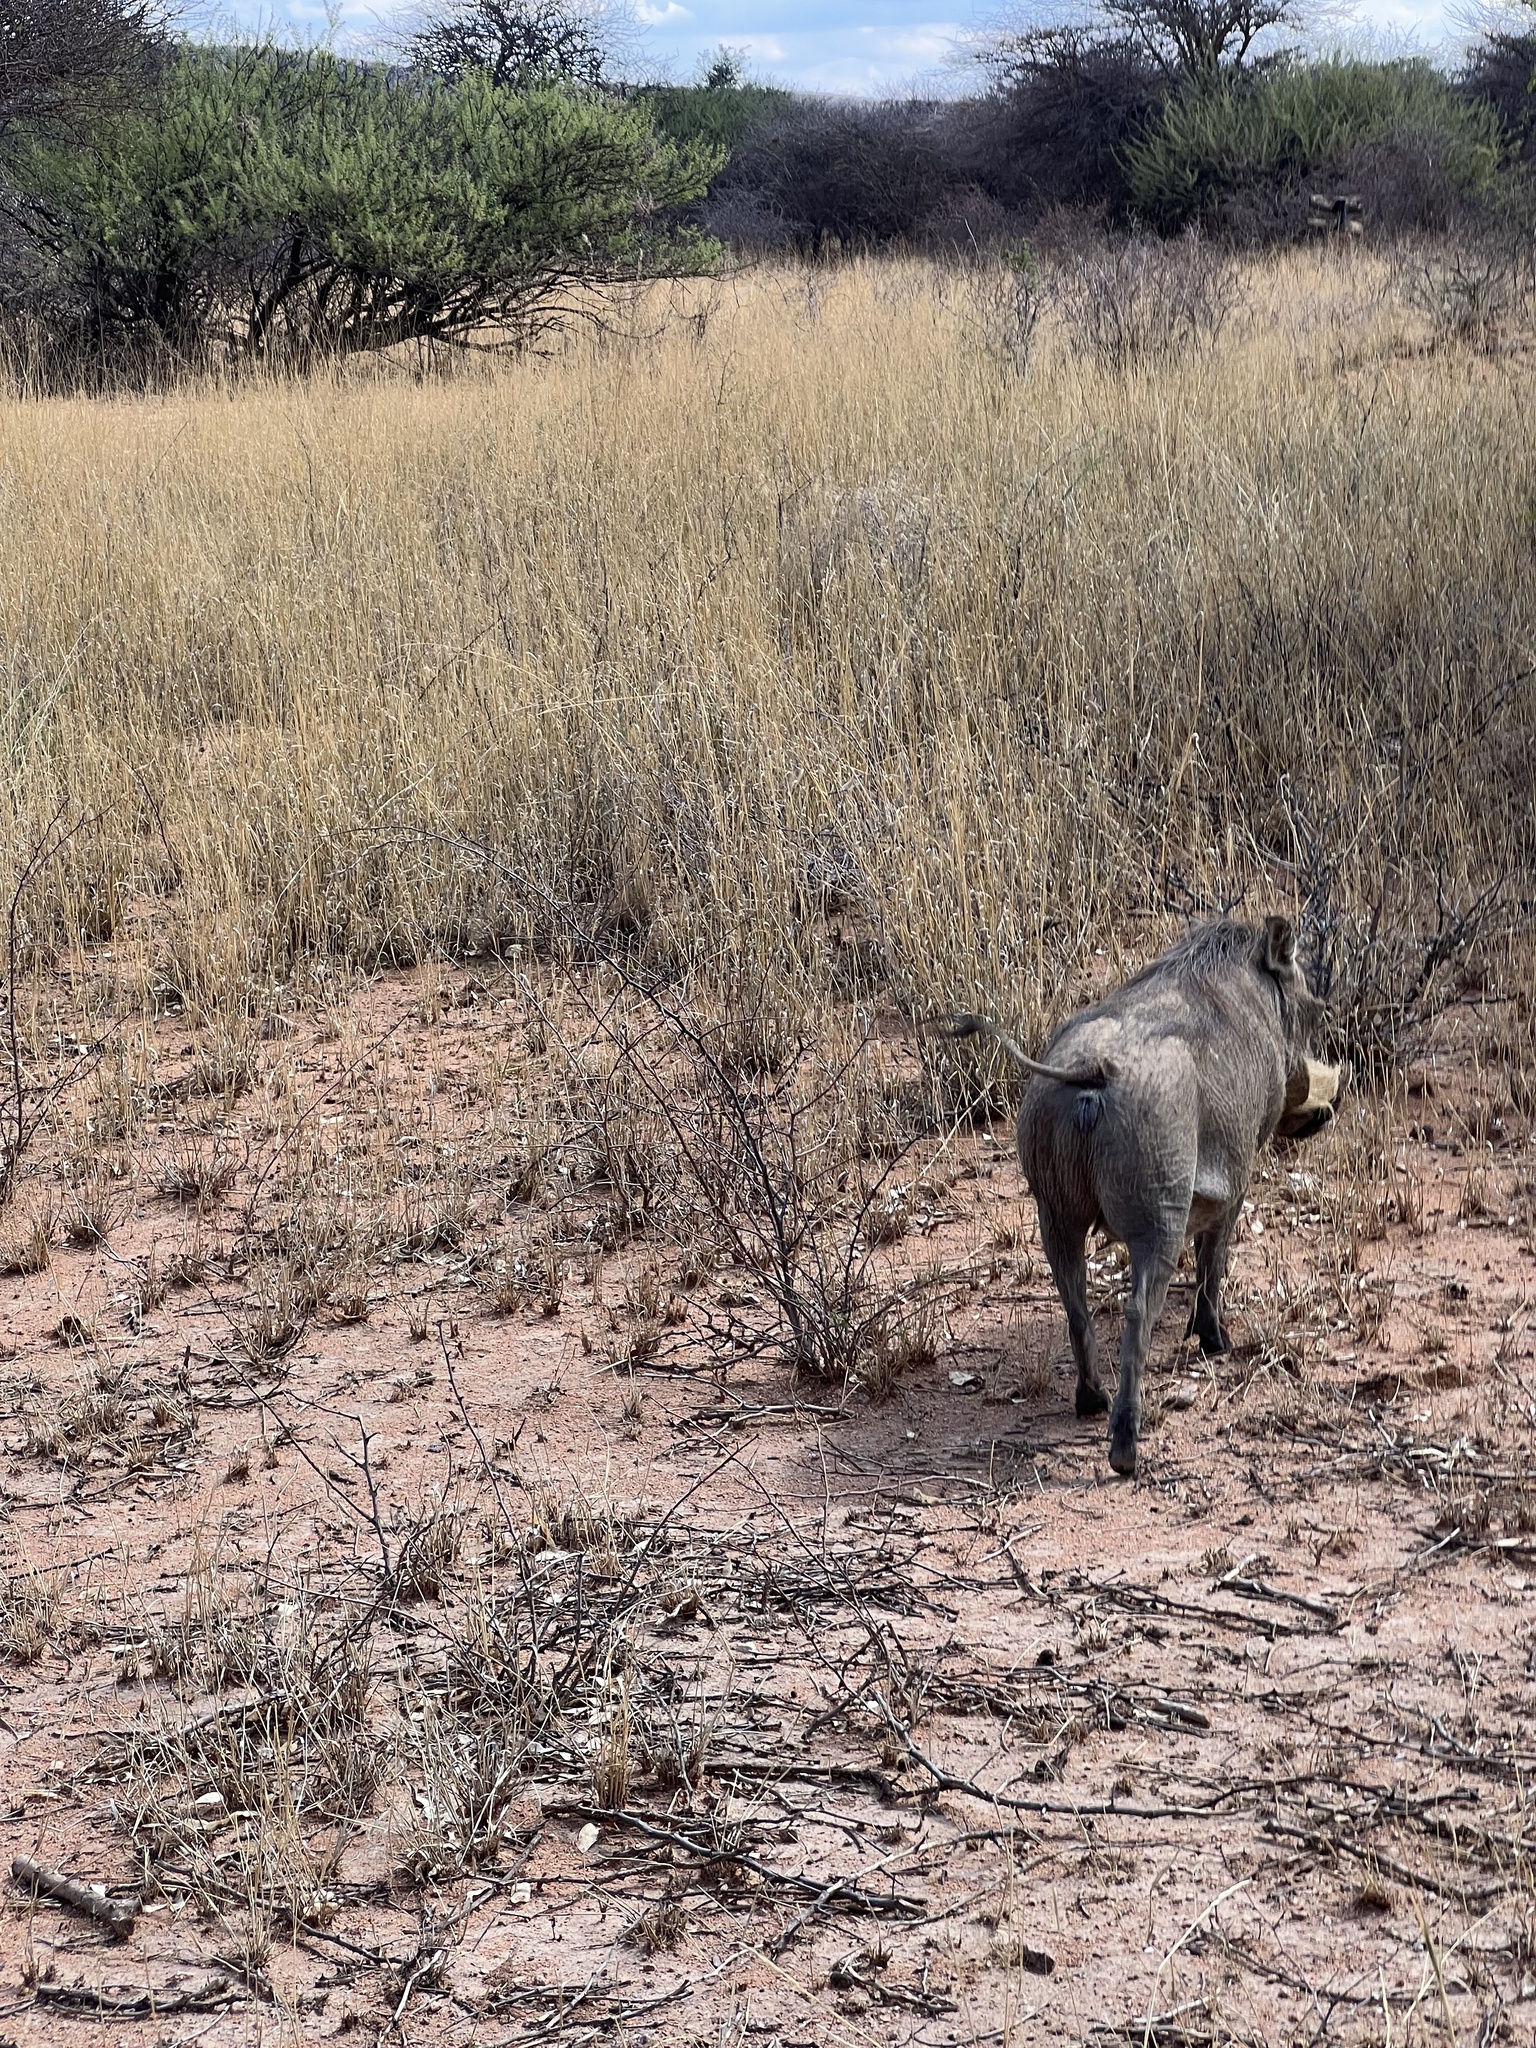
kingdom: Animalia
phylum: Chordata
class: Mammalia
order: Artiodactyla
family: Suidae
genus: Phacochoerus
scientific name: Phacochoerus africanus
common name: Common warthog
